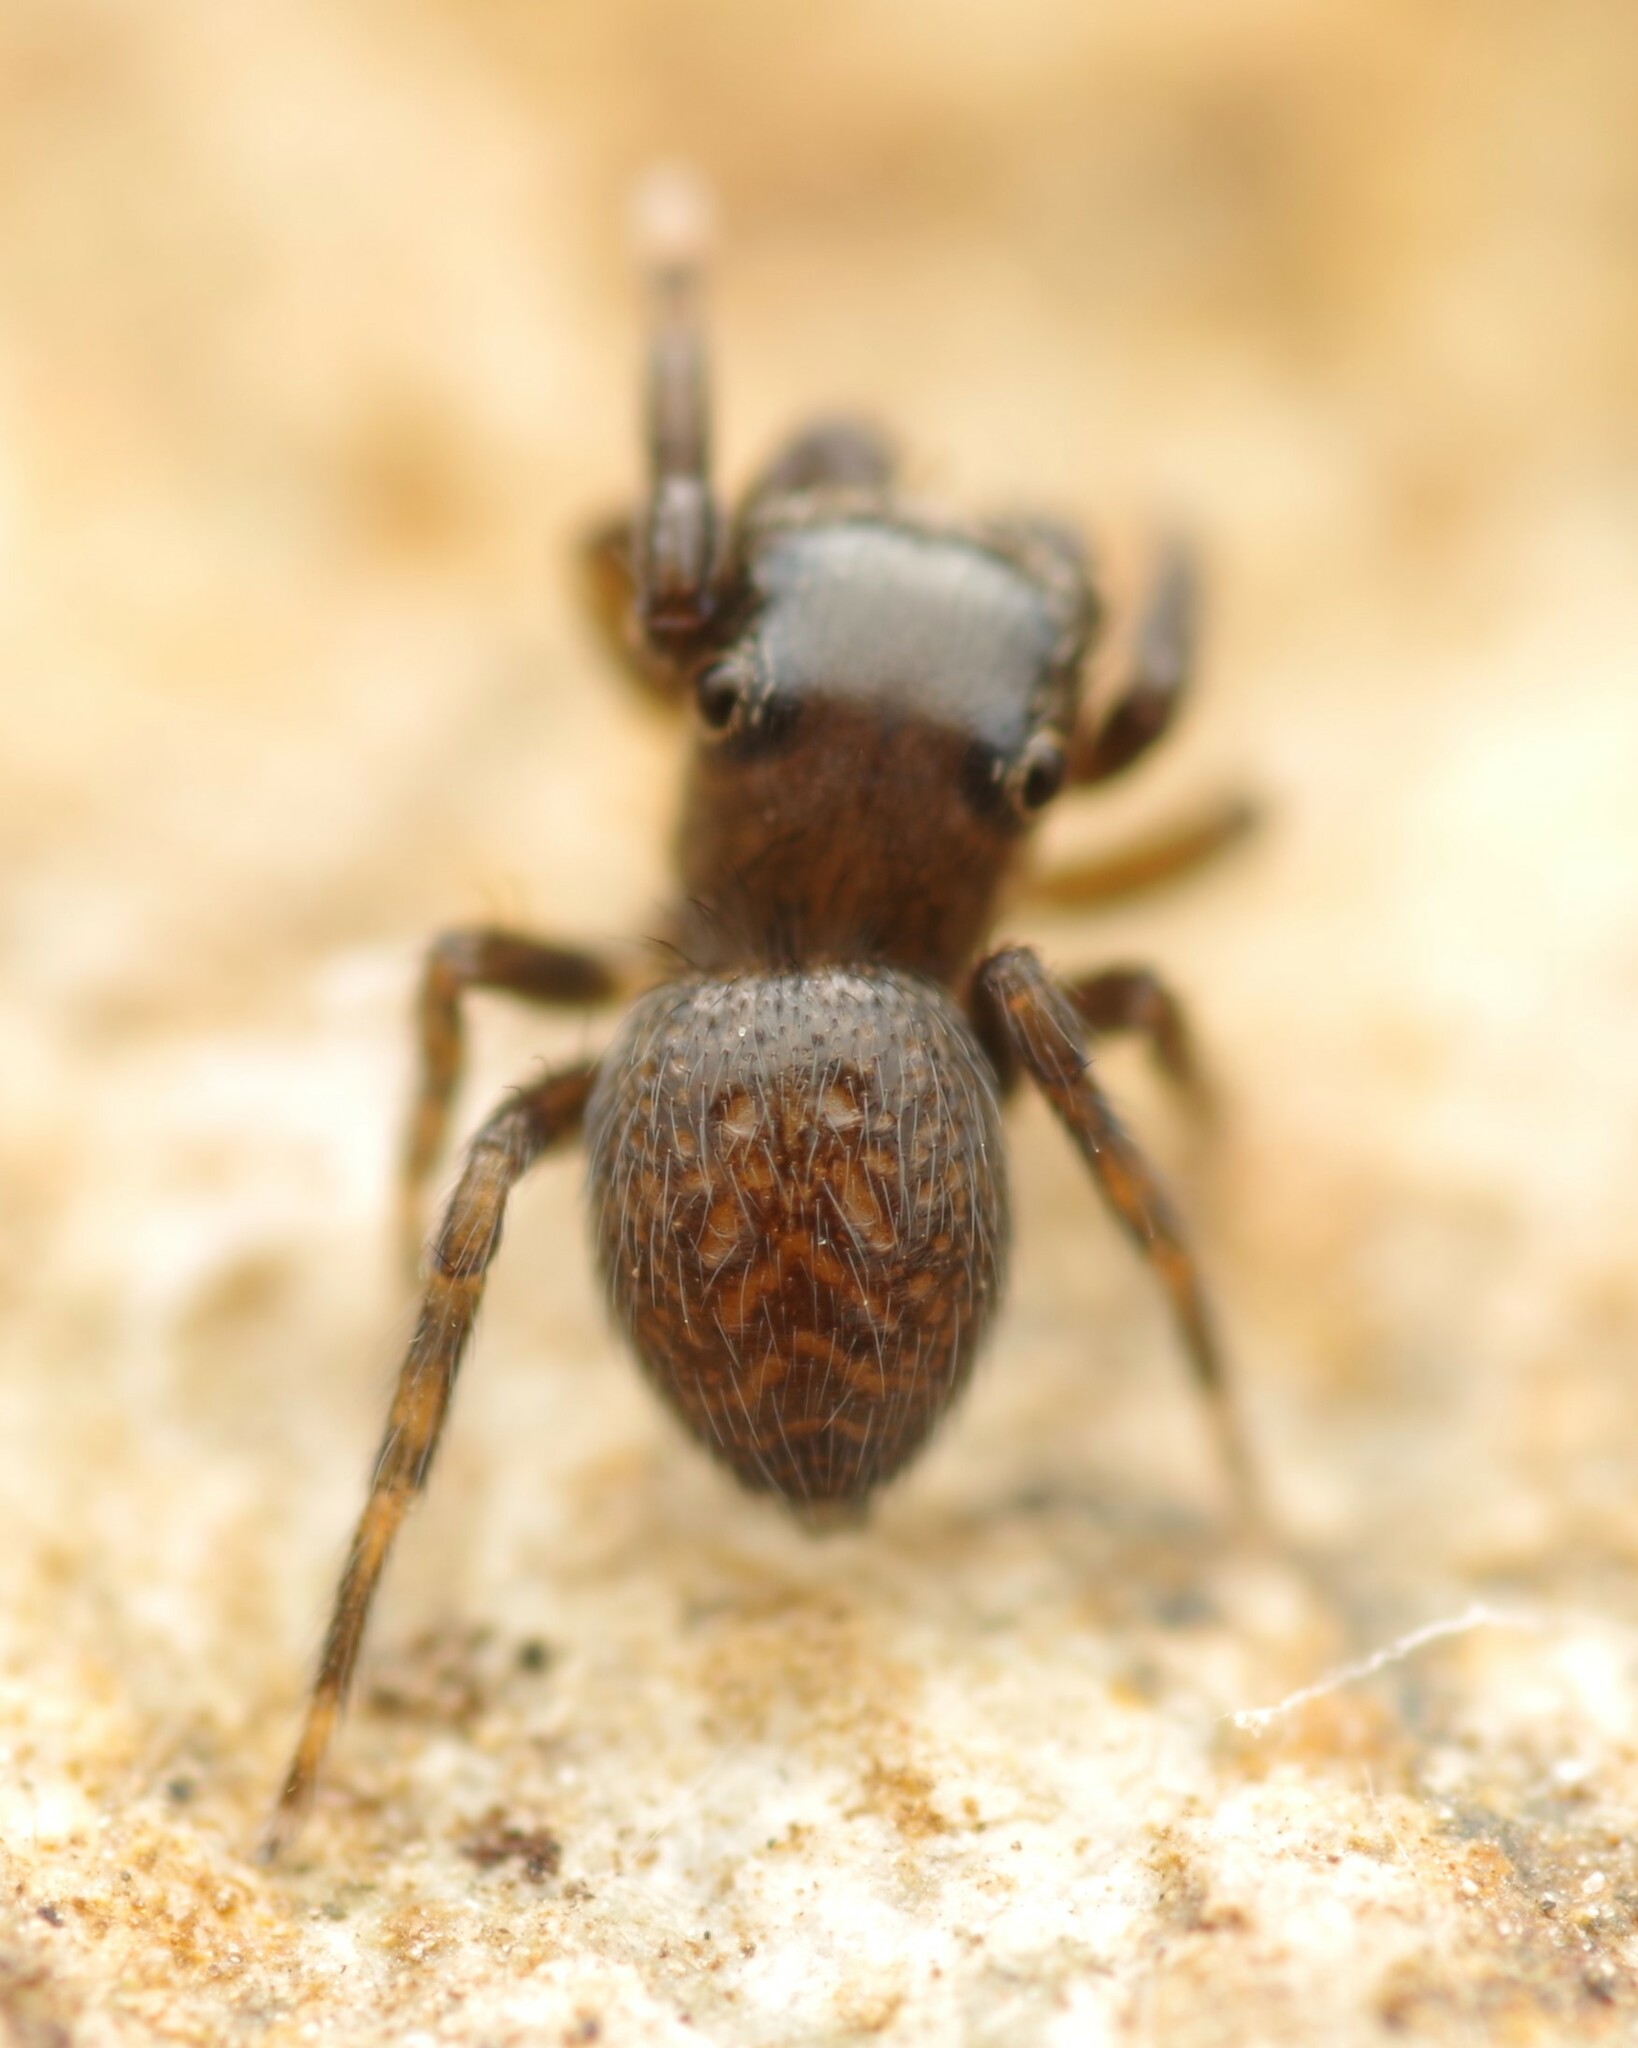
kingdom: Animalia
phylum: Arthropoda
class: Arachnida
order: Araneae
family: Salticidae
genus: Neon
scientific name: Neon robustus
